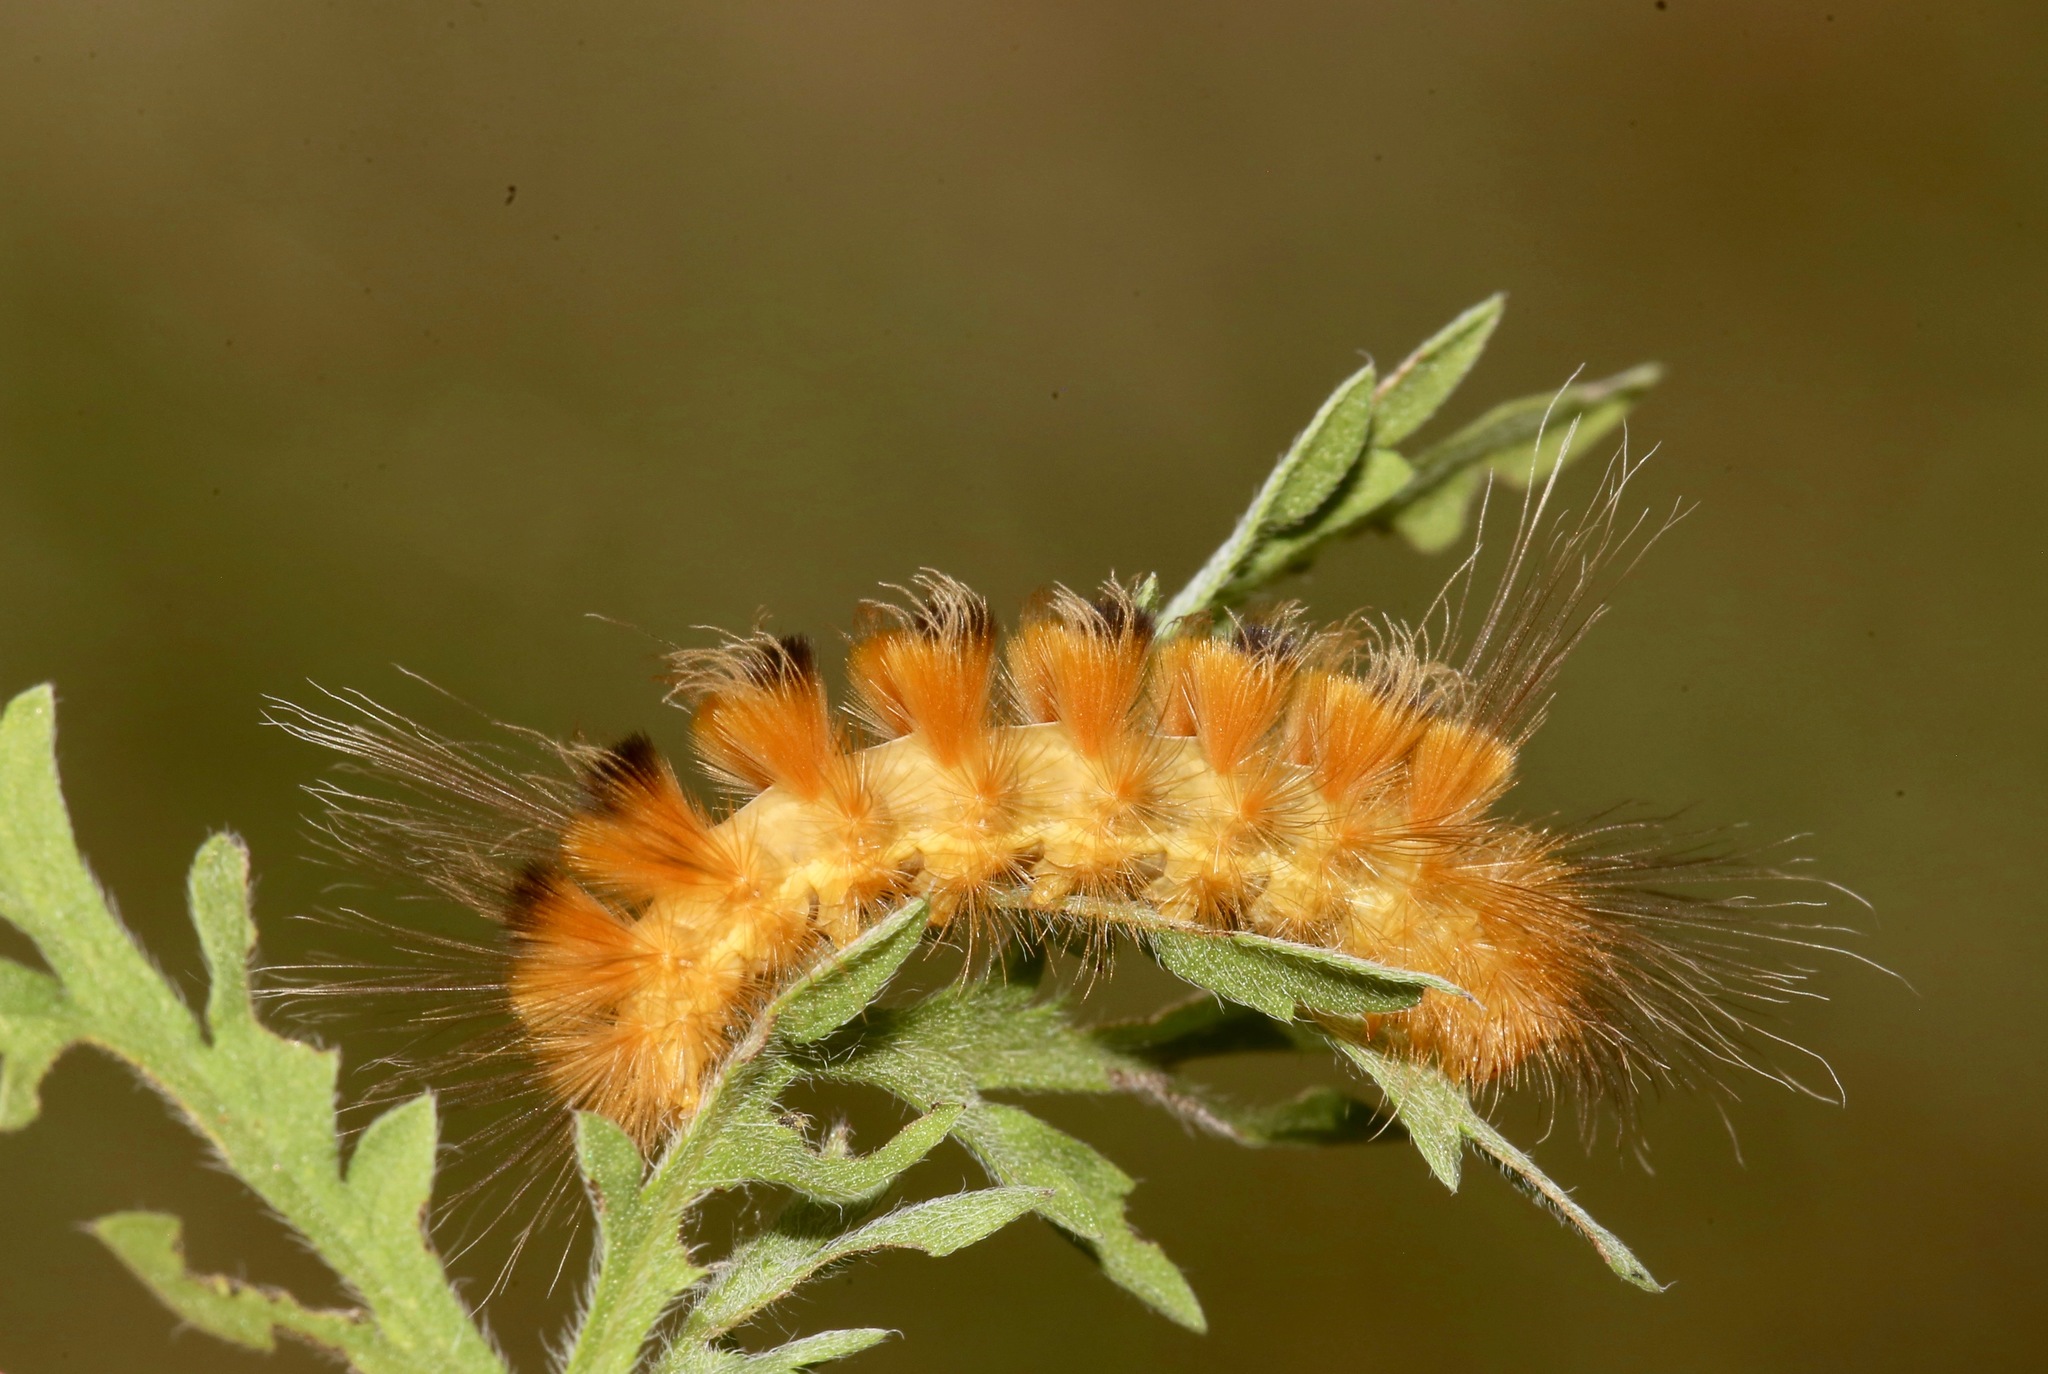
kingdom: Animalia
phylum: Arthropoda
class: Insecta
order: Lepidoptera
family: Erebidae
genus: Pygarctia
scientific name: Pygarctia roseicapitis
